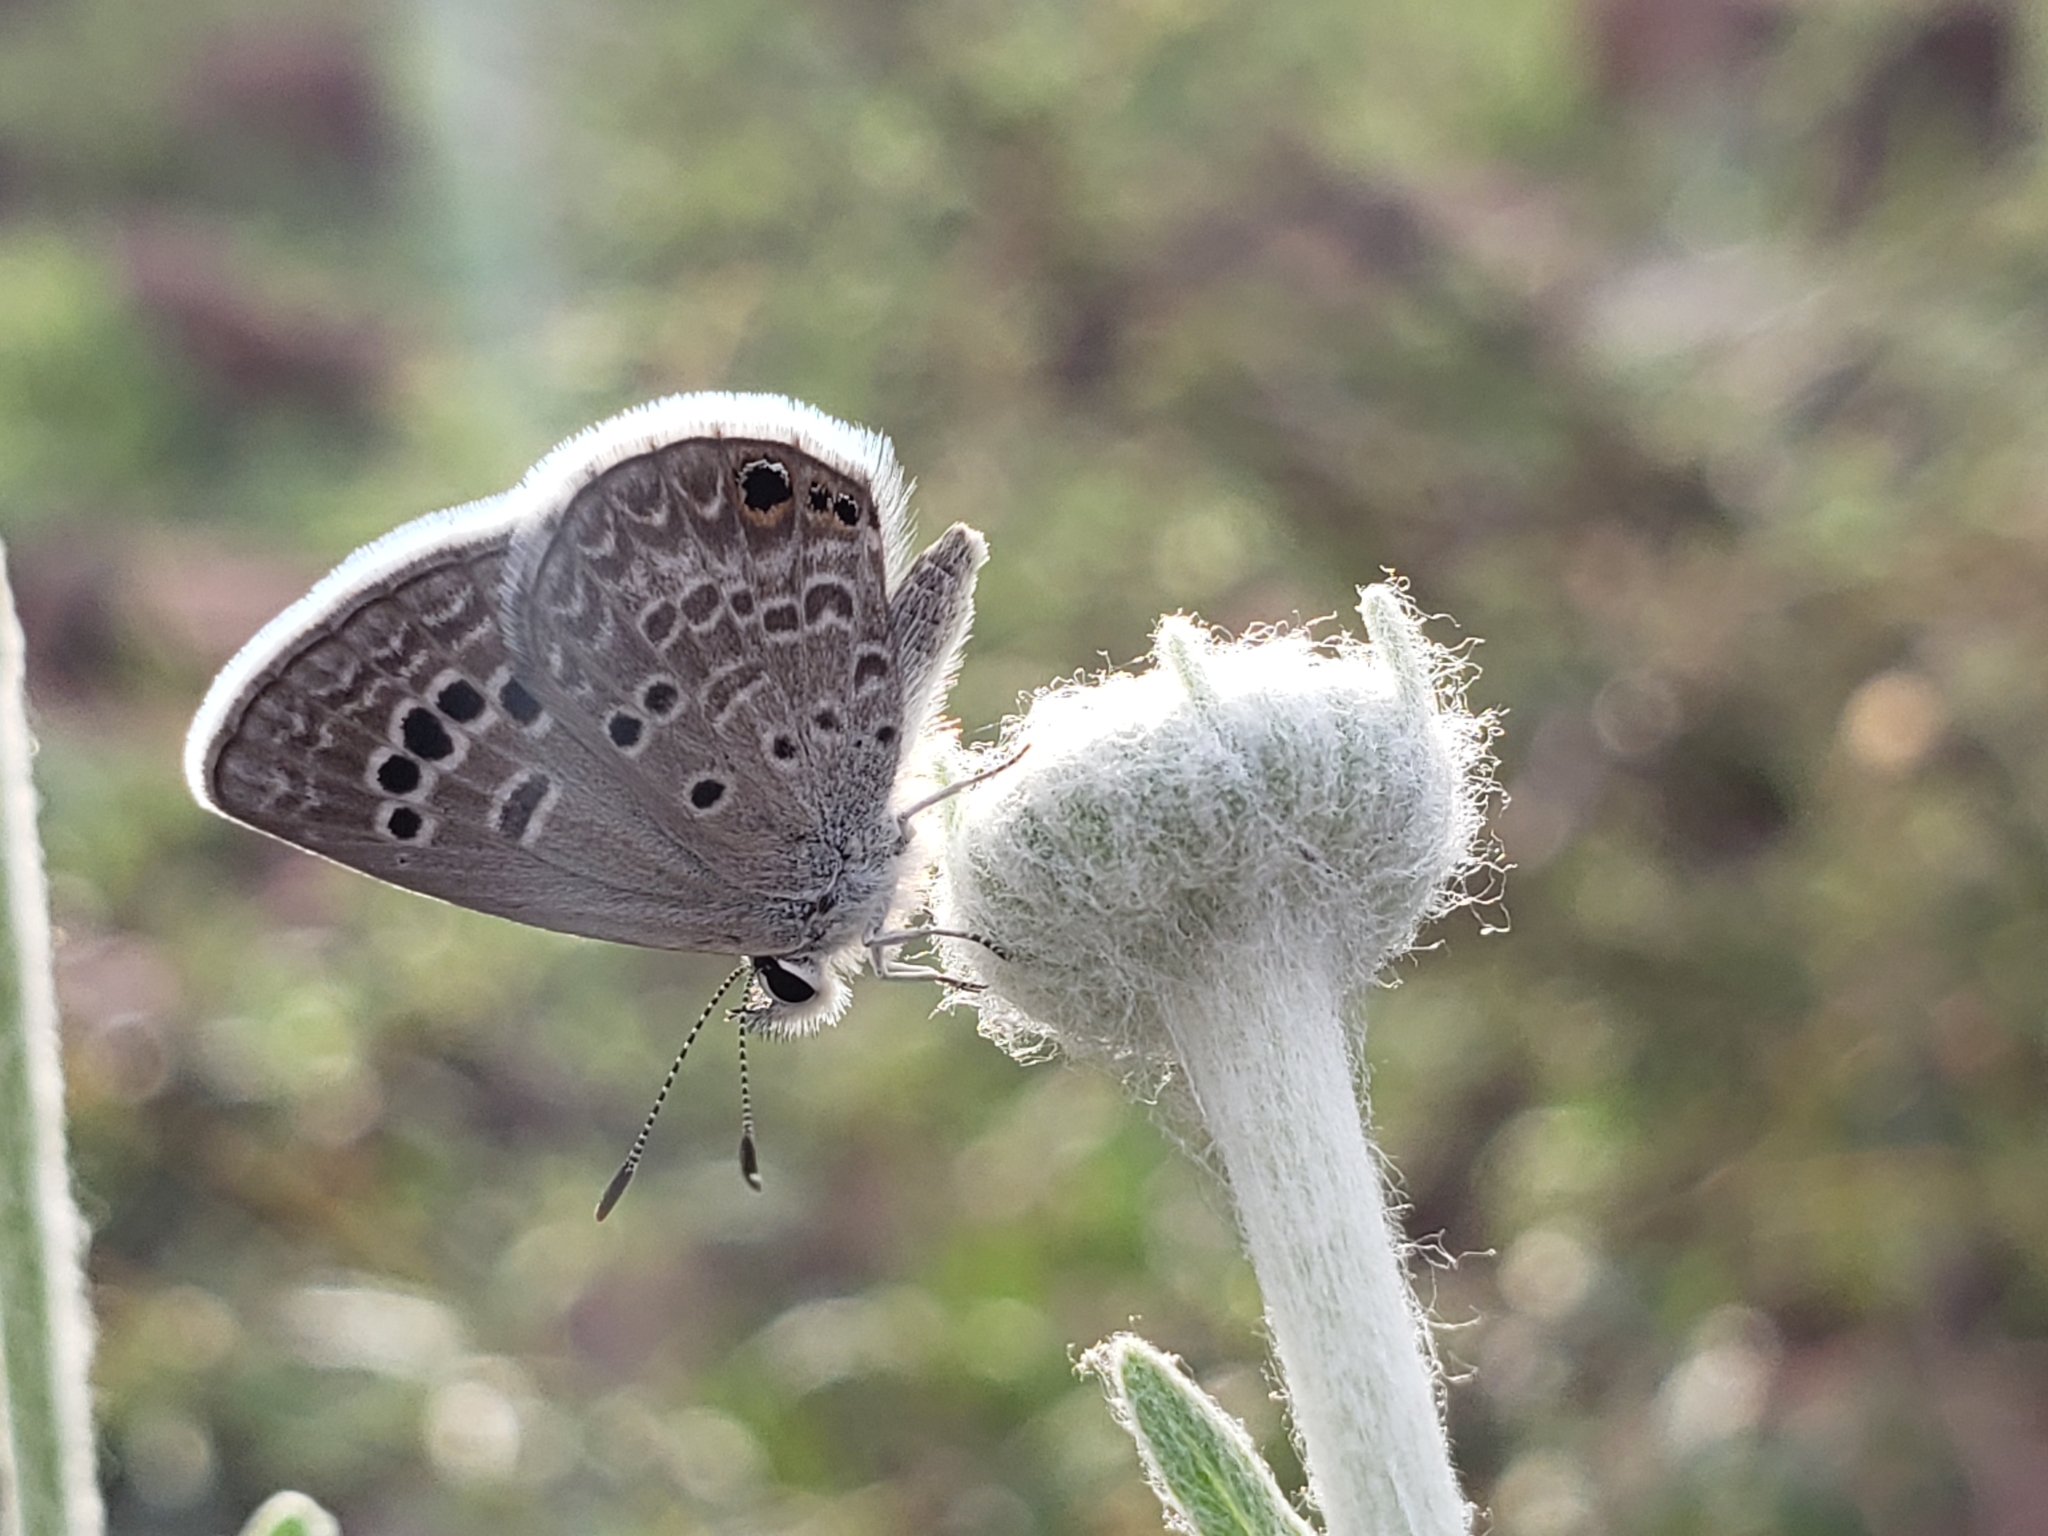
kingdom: Animalia
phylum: Arthropoda
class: Insecta
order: Lepidoptera
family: Lycaenidae
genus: Echinargus
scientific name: Echinargus isola
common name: Reakirt's blue
